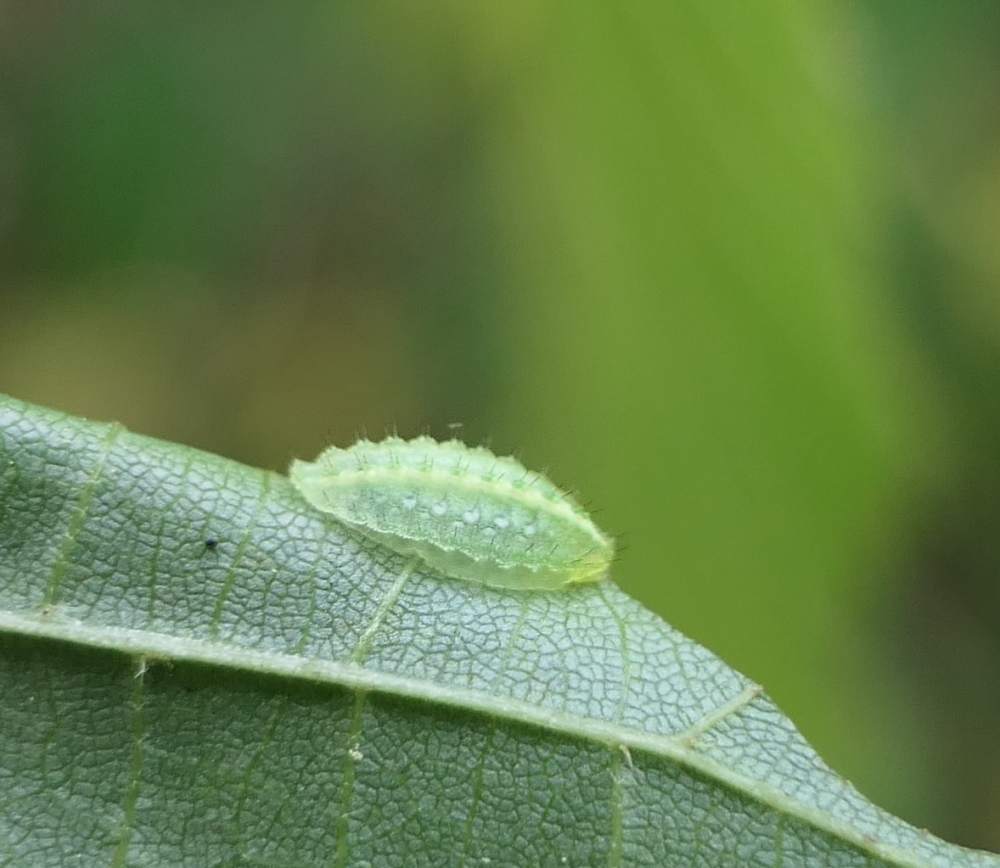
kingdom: Animalia
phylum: Arthropoda
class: Insecta
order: Lepidoptera
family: Limacodidae
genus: Lithacodes
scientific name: Lithacodes fasciola
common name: Yellow-shouldered slug moth
